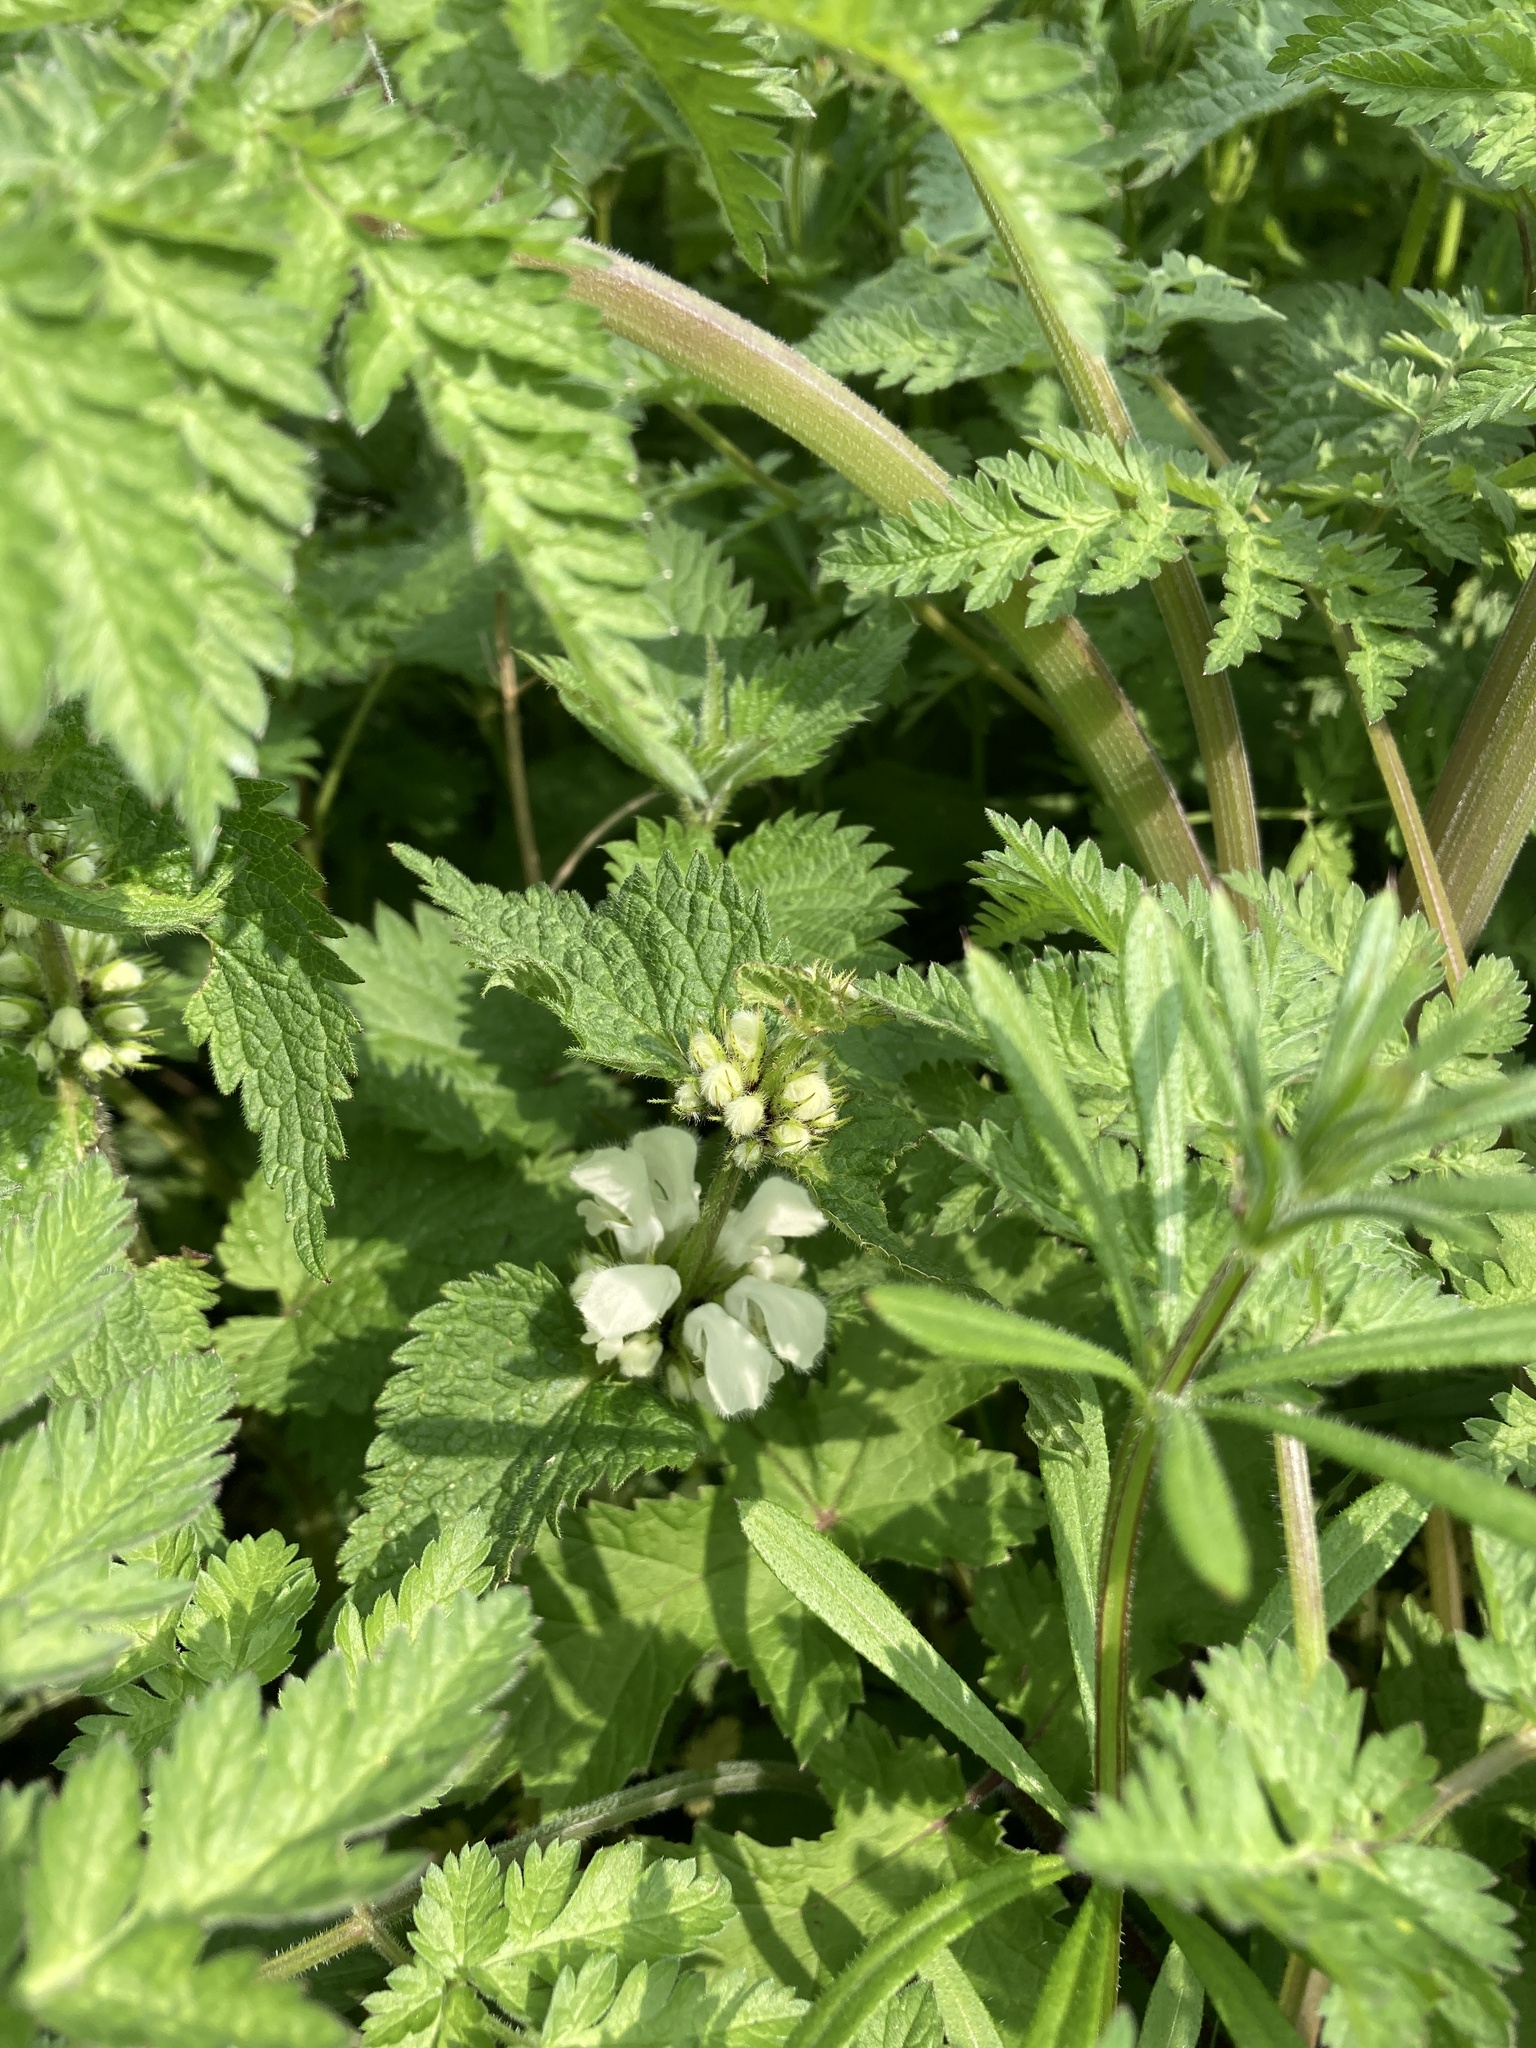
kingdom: Plantae
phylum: Tracheophyta
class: Magnoliopsida
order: Lamiales
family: Lamiaceae
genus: Lamium
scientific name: Lamium album
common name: White dead-nettle
